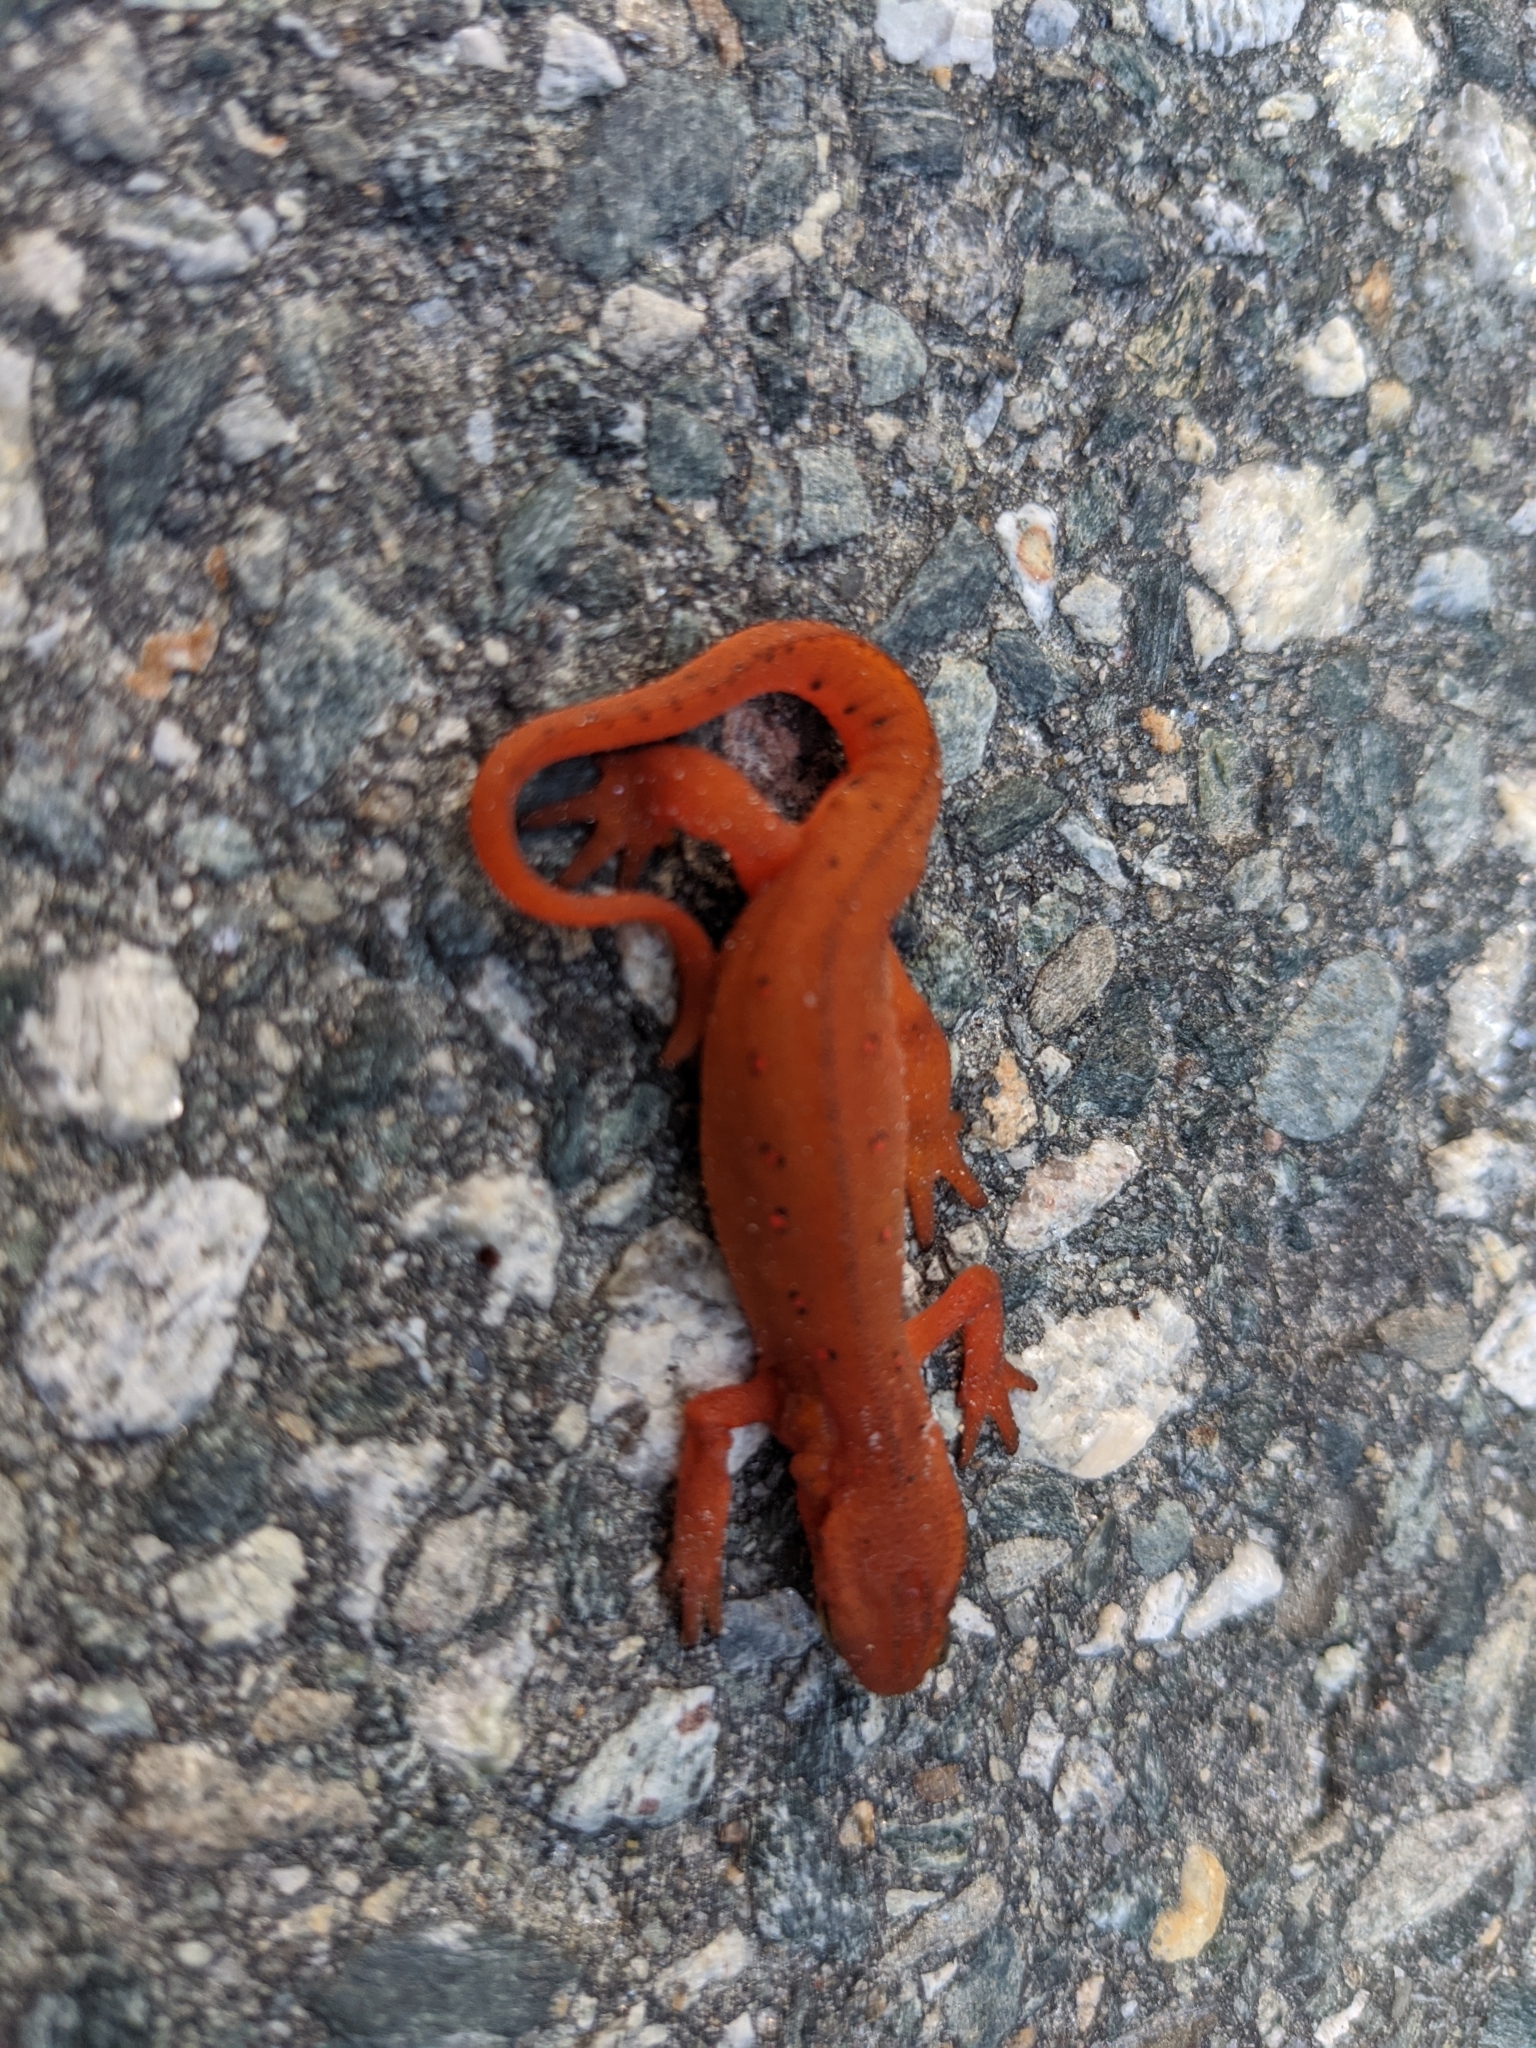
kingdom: Animalia
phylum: Chordata
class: Amphibia
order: Caudata
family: Salamandridae
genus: Notophthalmus
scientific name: Notophthalmus viridescens
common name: Eastern newt
